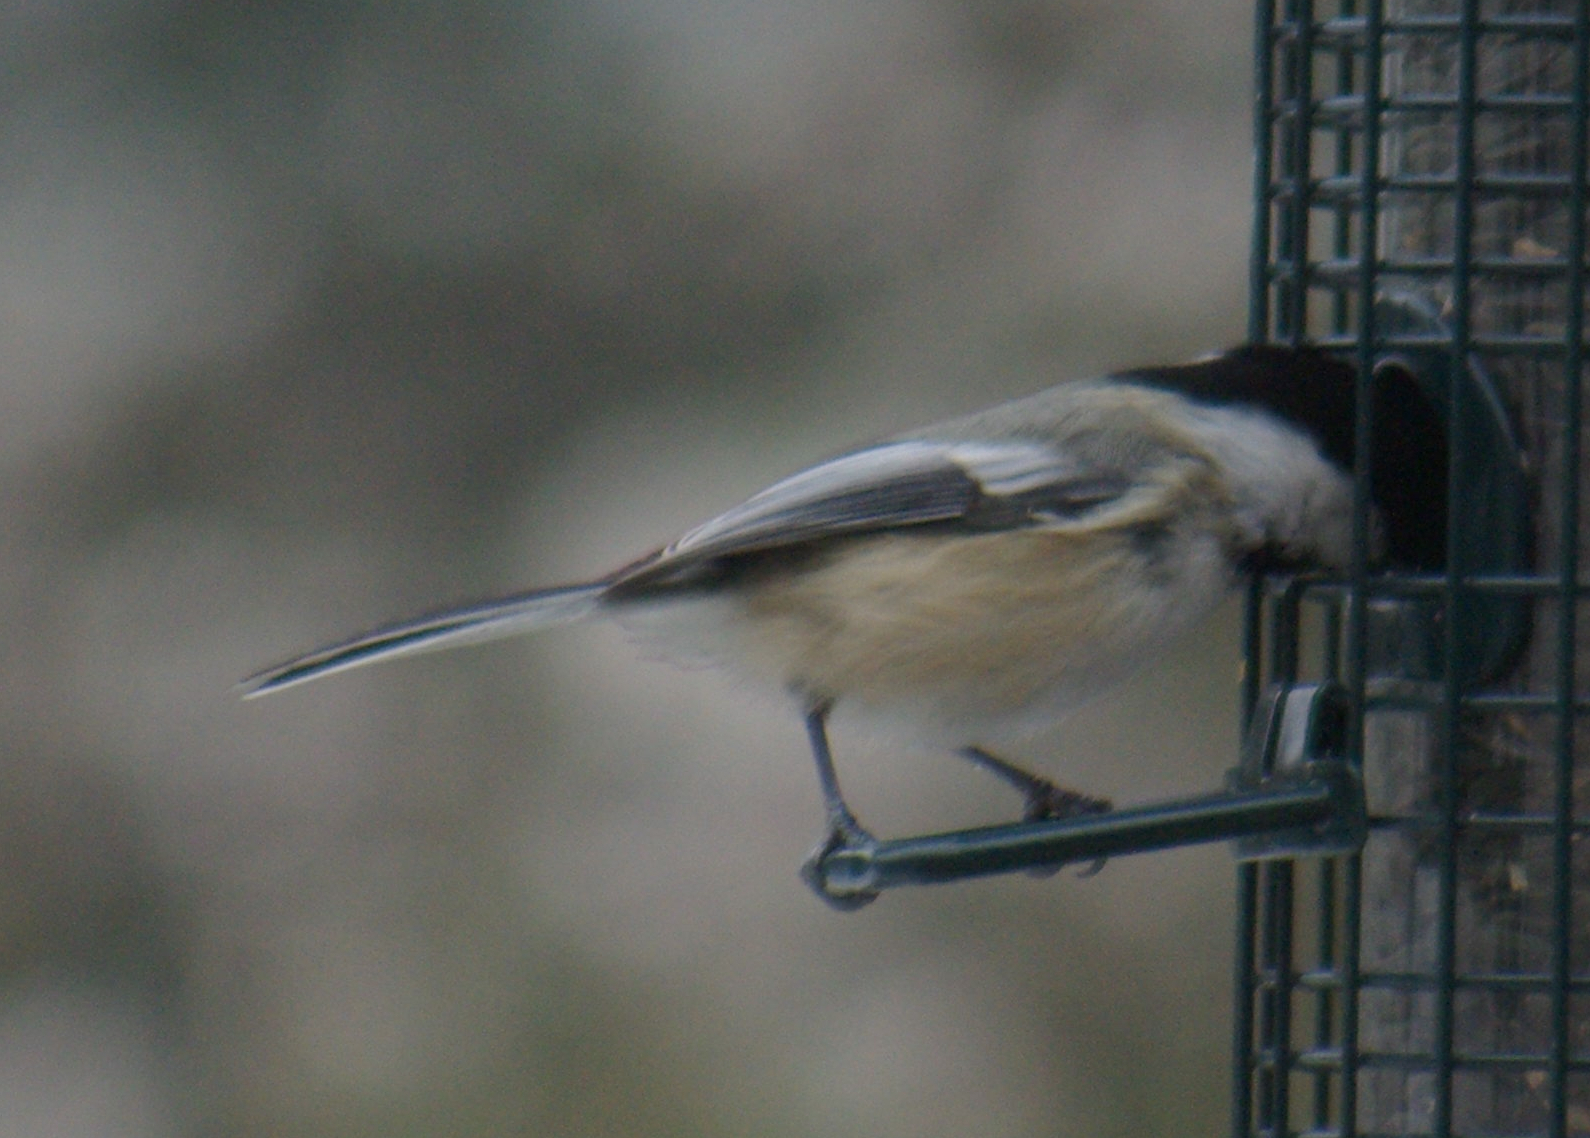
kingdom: Animalia
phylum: Chordata
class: Aves
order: Passeriformes
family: Paridae
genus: Poecile
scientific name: Poecile atricapillus
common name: Black-capped chickadee
